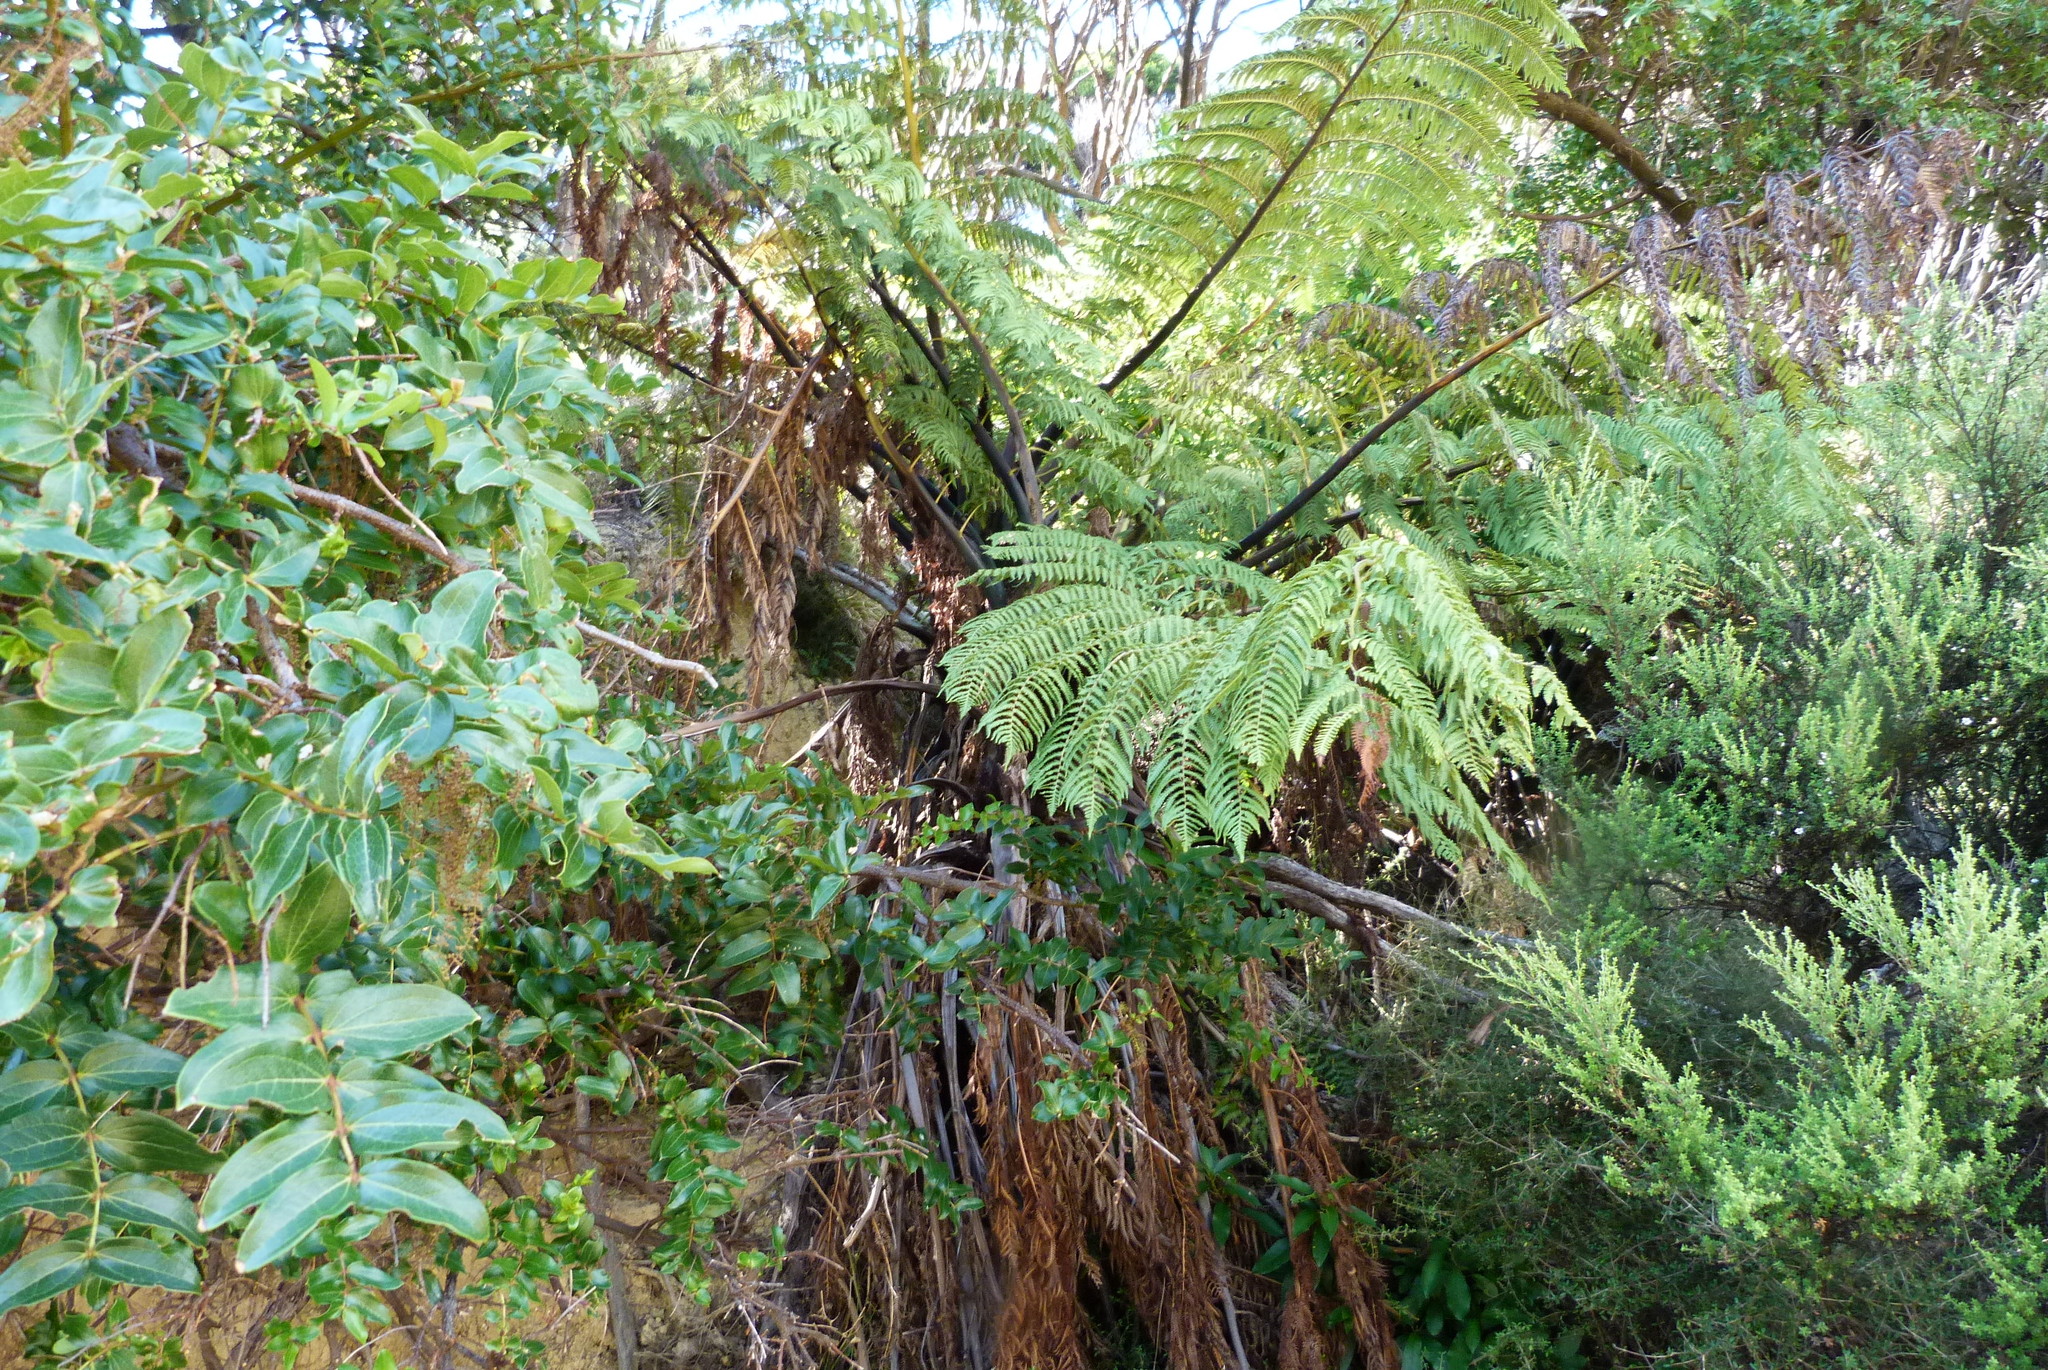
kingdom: Plantae
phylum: Tracheophyta
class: Polypodiopsida
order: Cyatheales
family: Cyatheaceae
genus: Sphaeropteris
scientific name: Sphaeropteris medullaris
